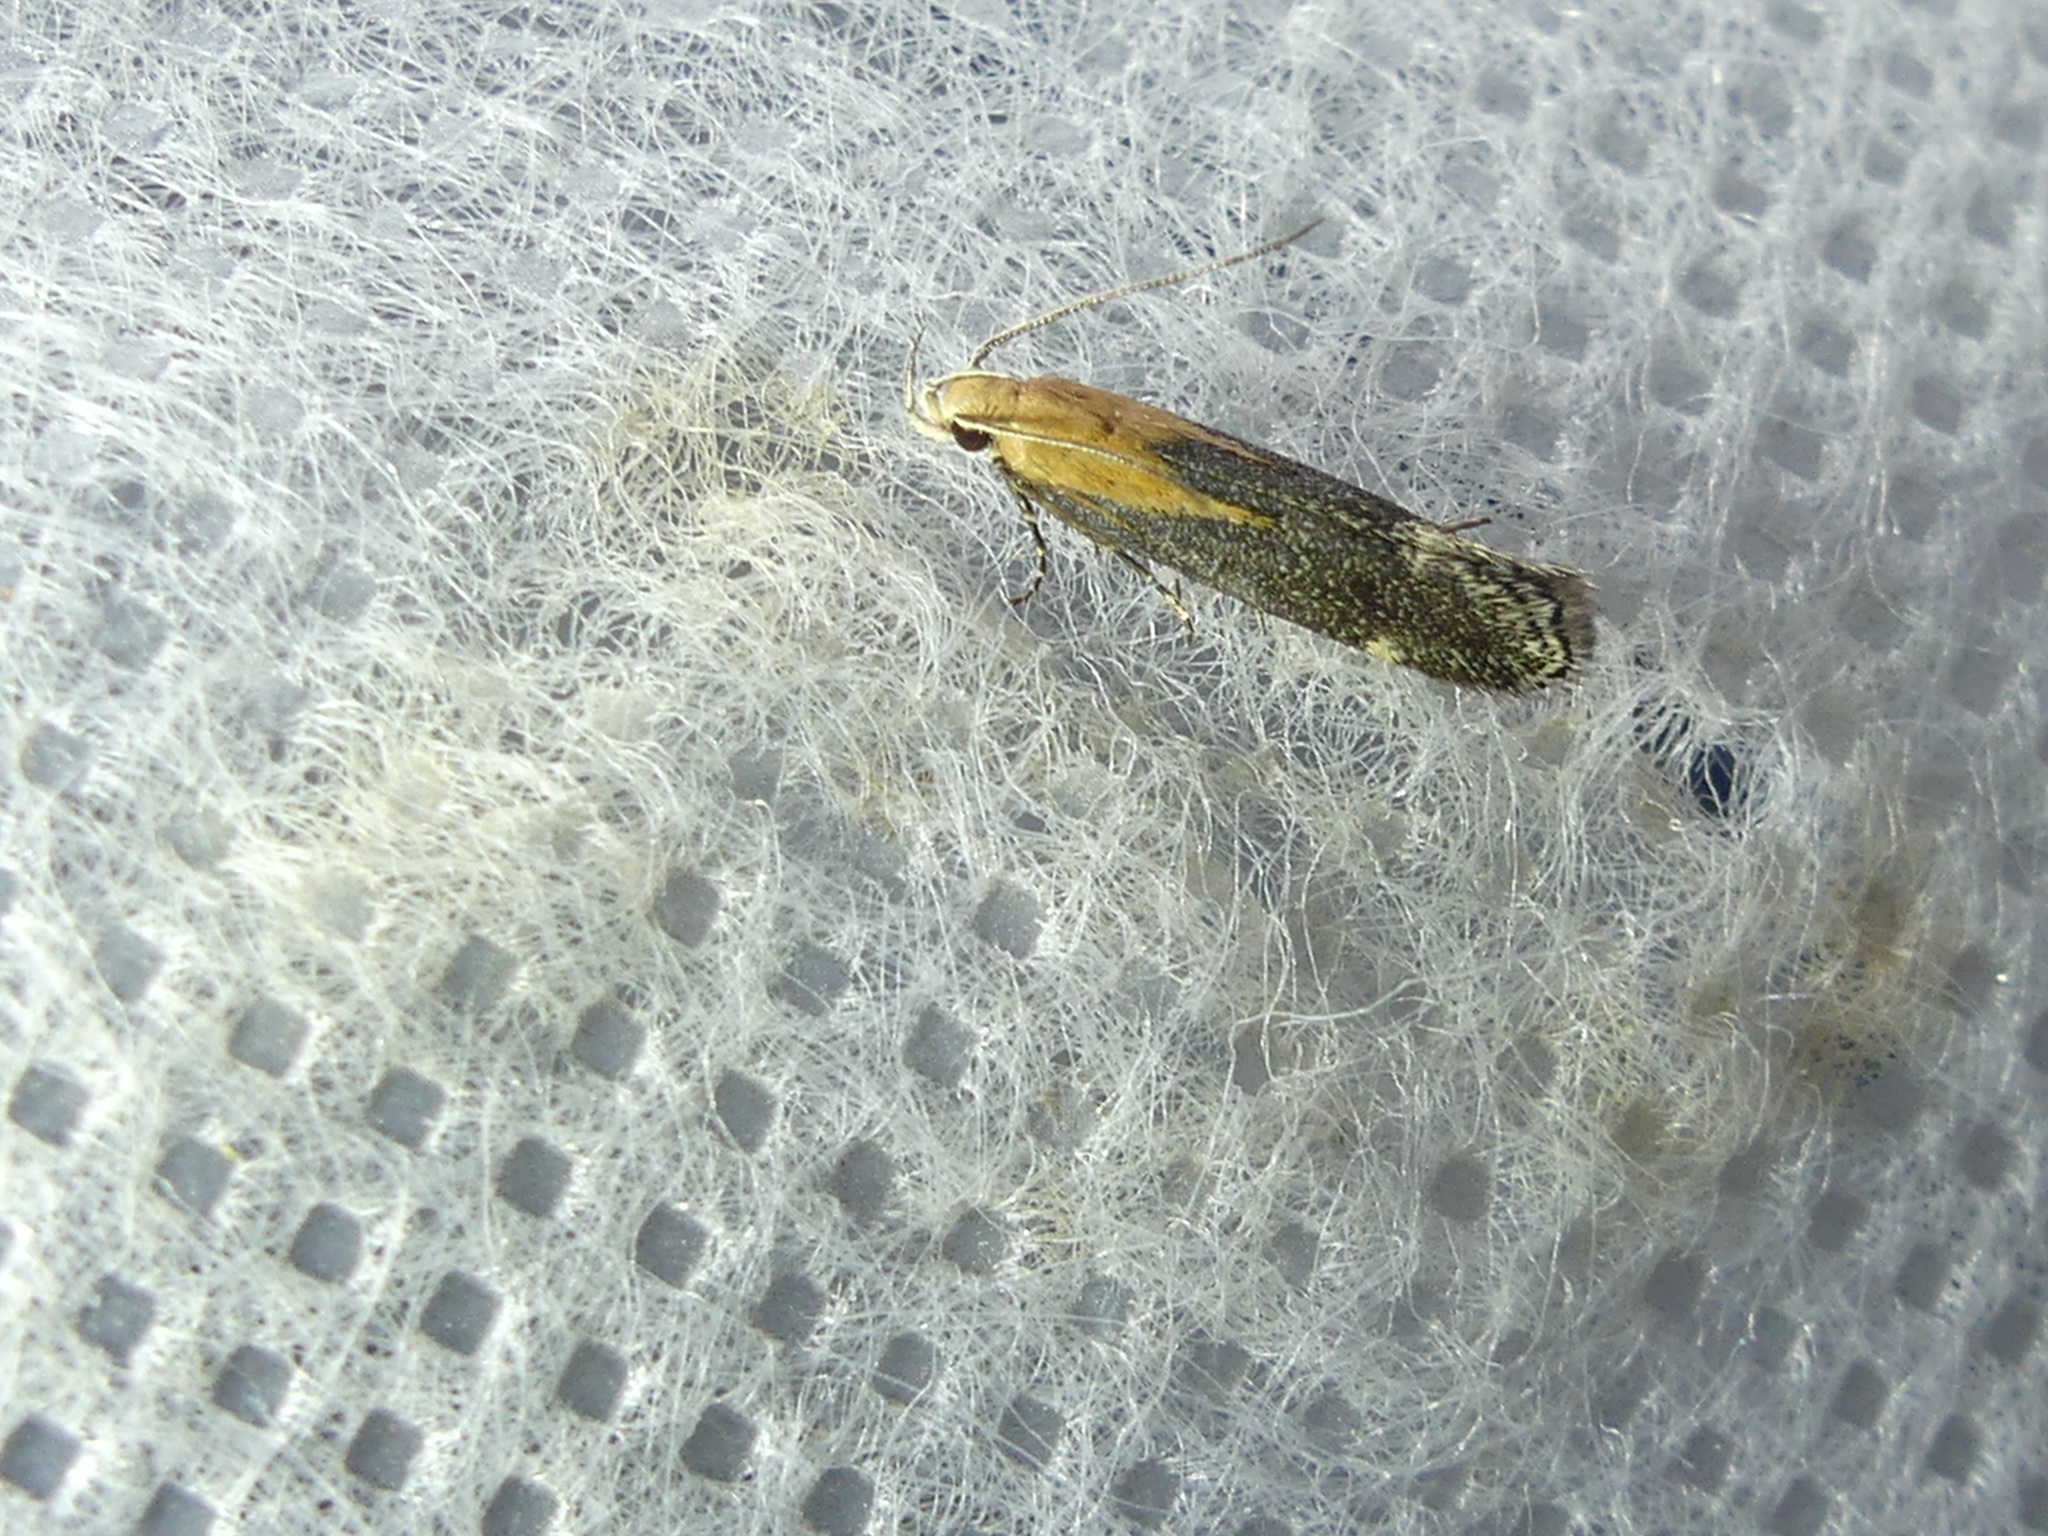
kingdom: Animalia
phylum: Arthropoda
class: Insecta
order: Lepidoptera
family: Gelechiidae
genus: Stomopteryx
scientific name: Stomopteryx basalis
